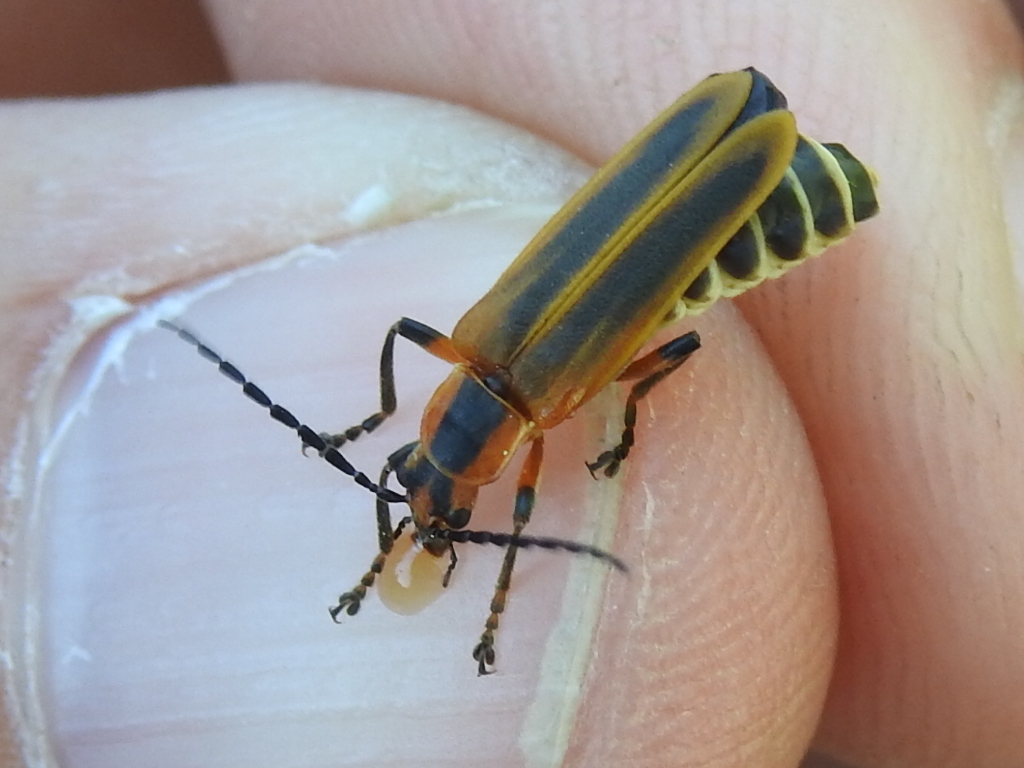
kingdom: Animalia
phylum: Arthropoda
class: Insecta
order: Coleoptera
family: Cantharidae
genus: Chauliognathus
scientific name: Chauliognathus marginatus
